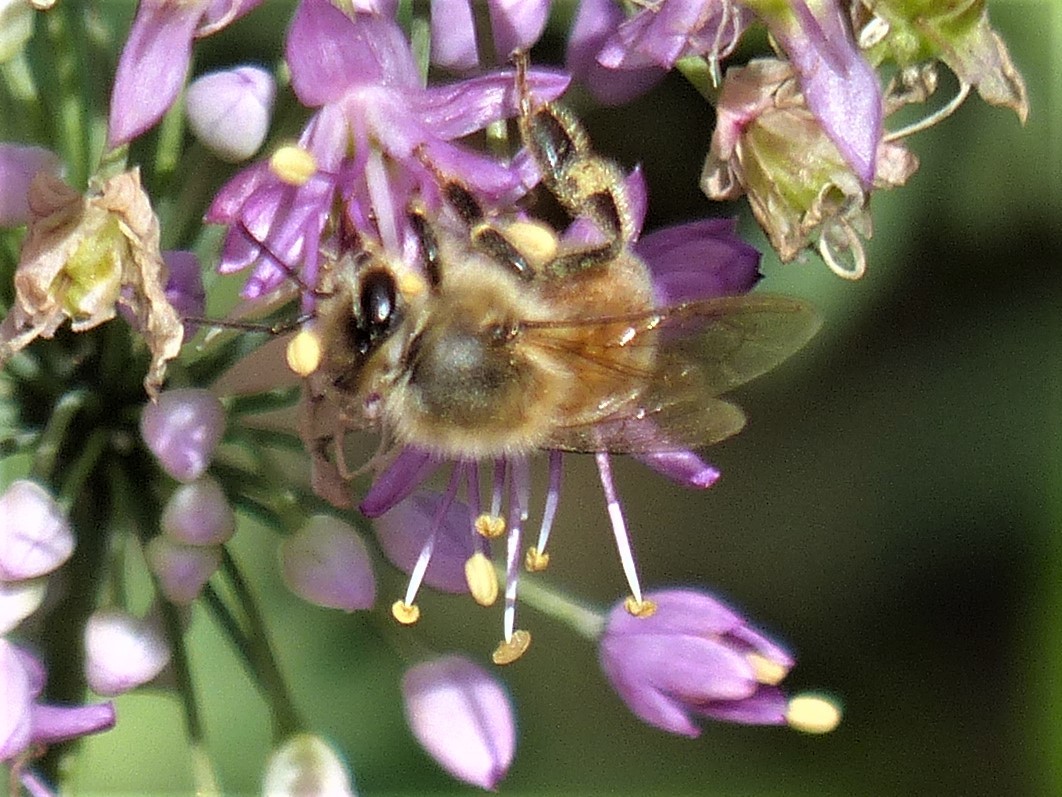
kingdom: Animalia
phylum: Arthropoda
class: Insecta
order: Hymenoptera
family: Apidae
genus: Apis
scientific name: Apis mellifera
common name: Honey bee
